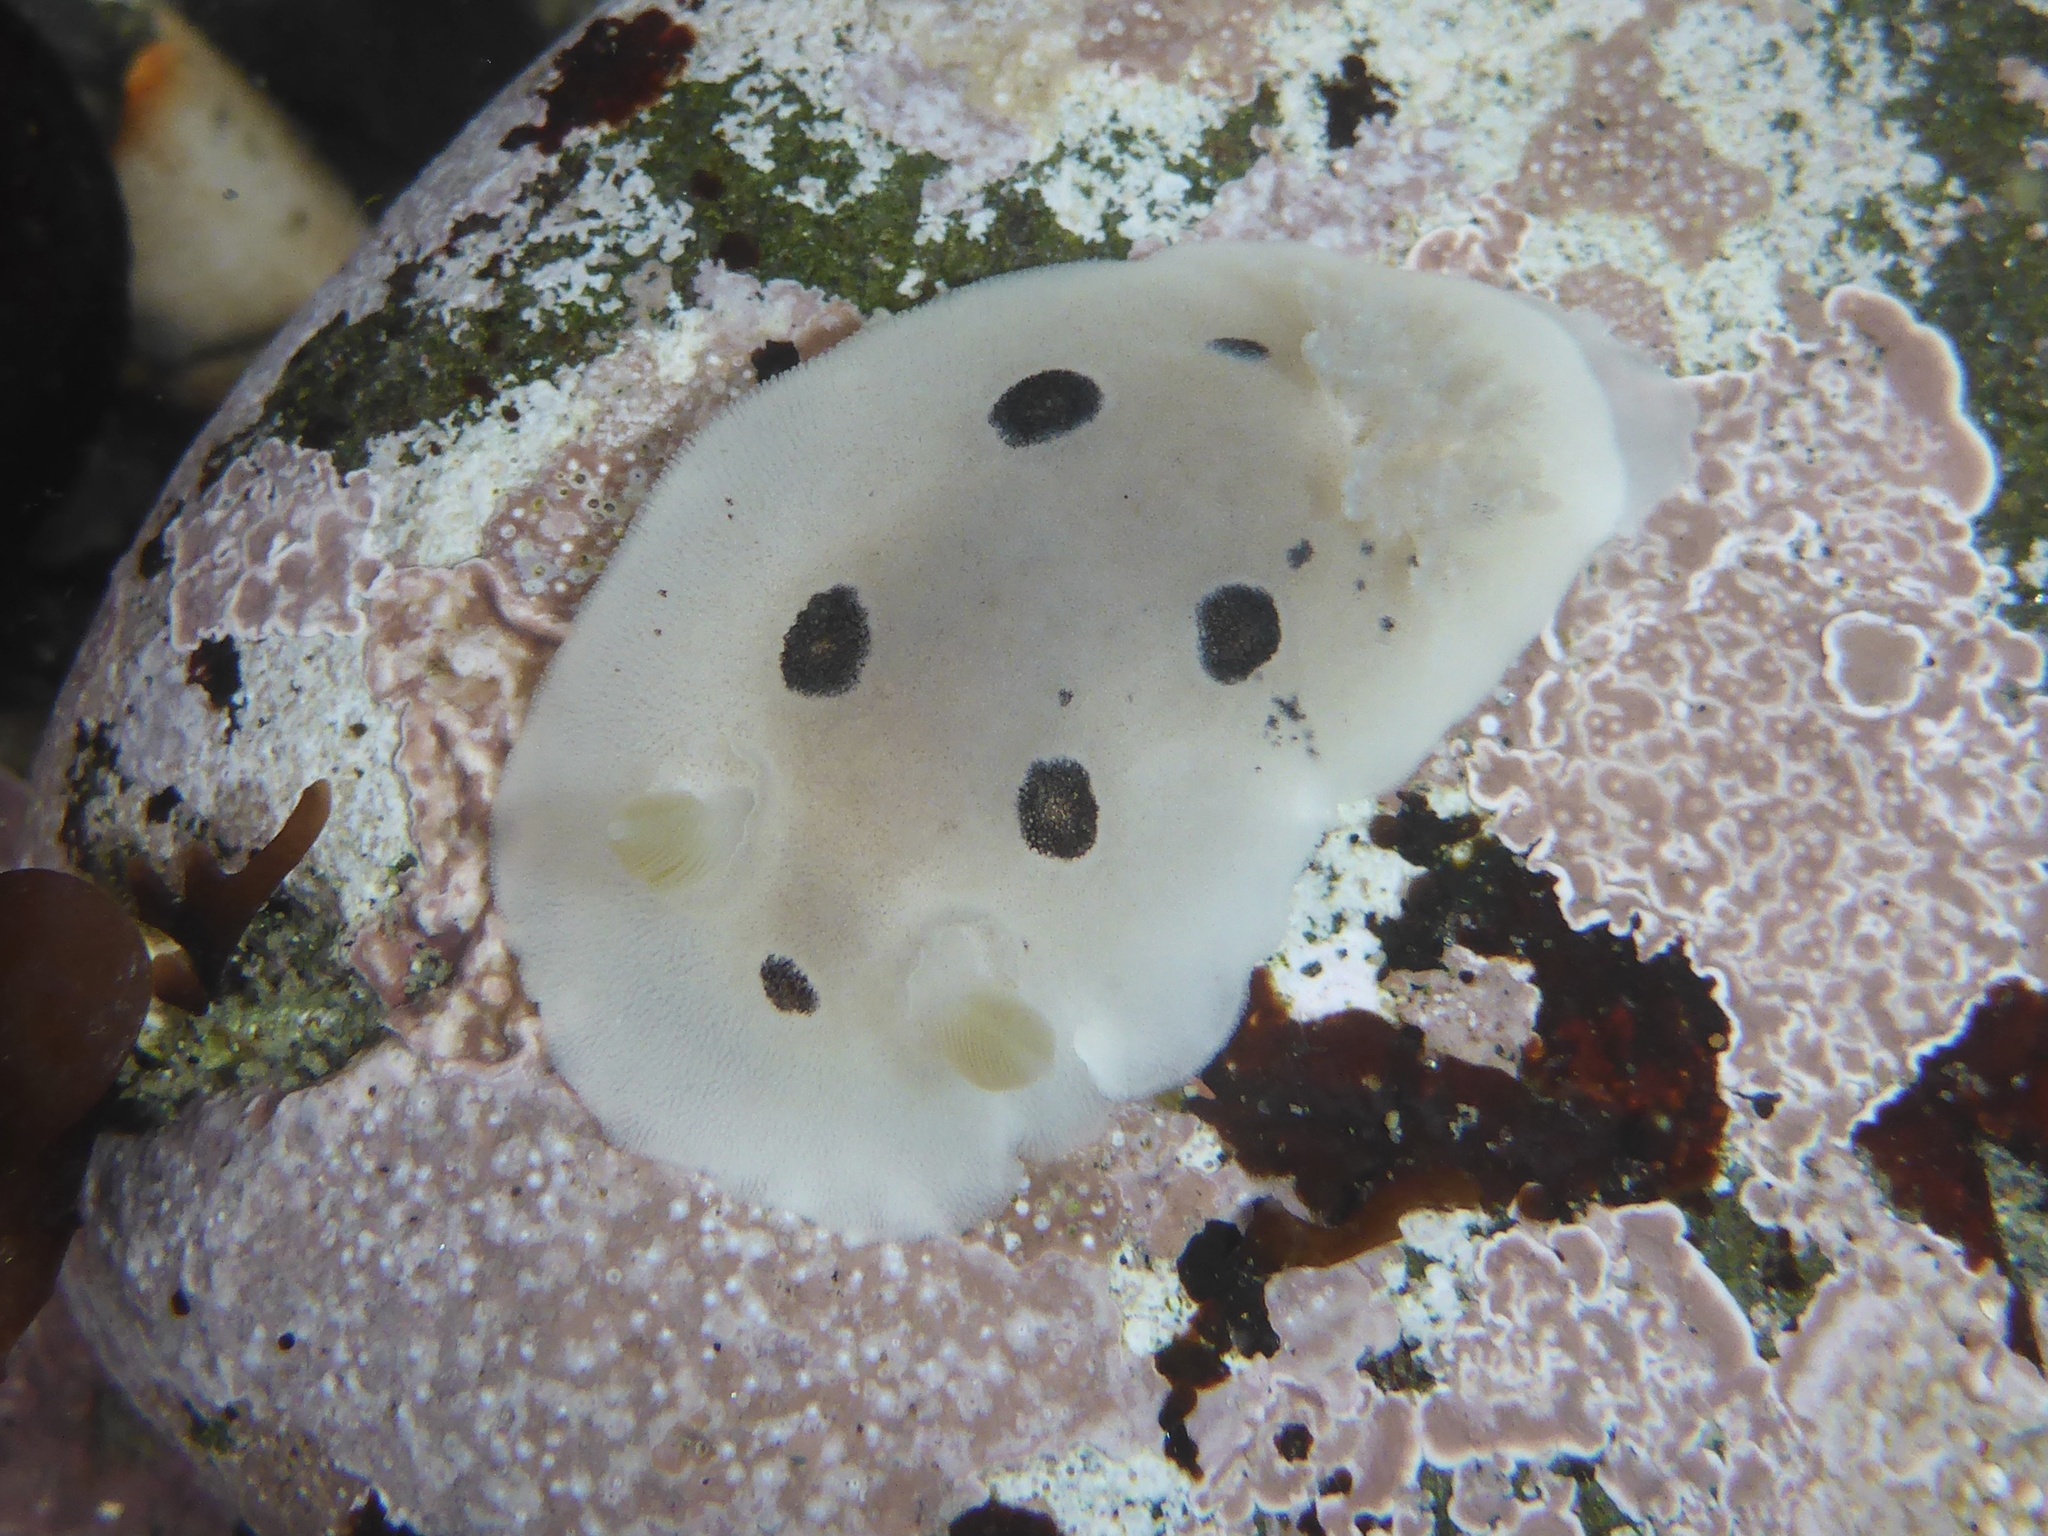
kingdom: Animalia
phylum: Mollusca
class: Gastropoda
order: Nudibranchia
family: Discodorididae
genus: Diaulula
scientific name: Diaulula sandiegensis
